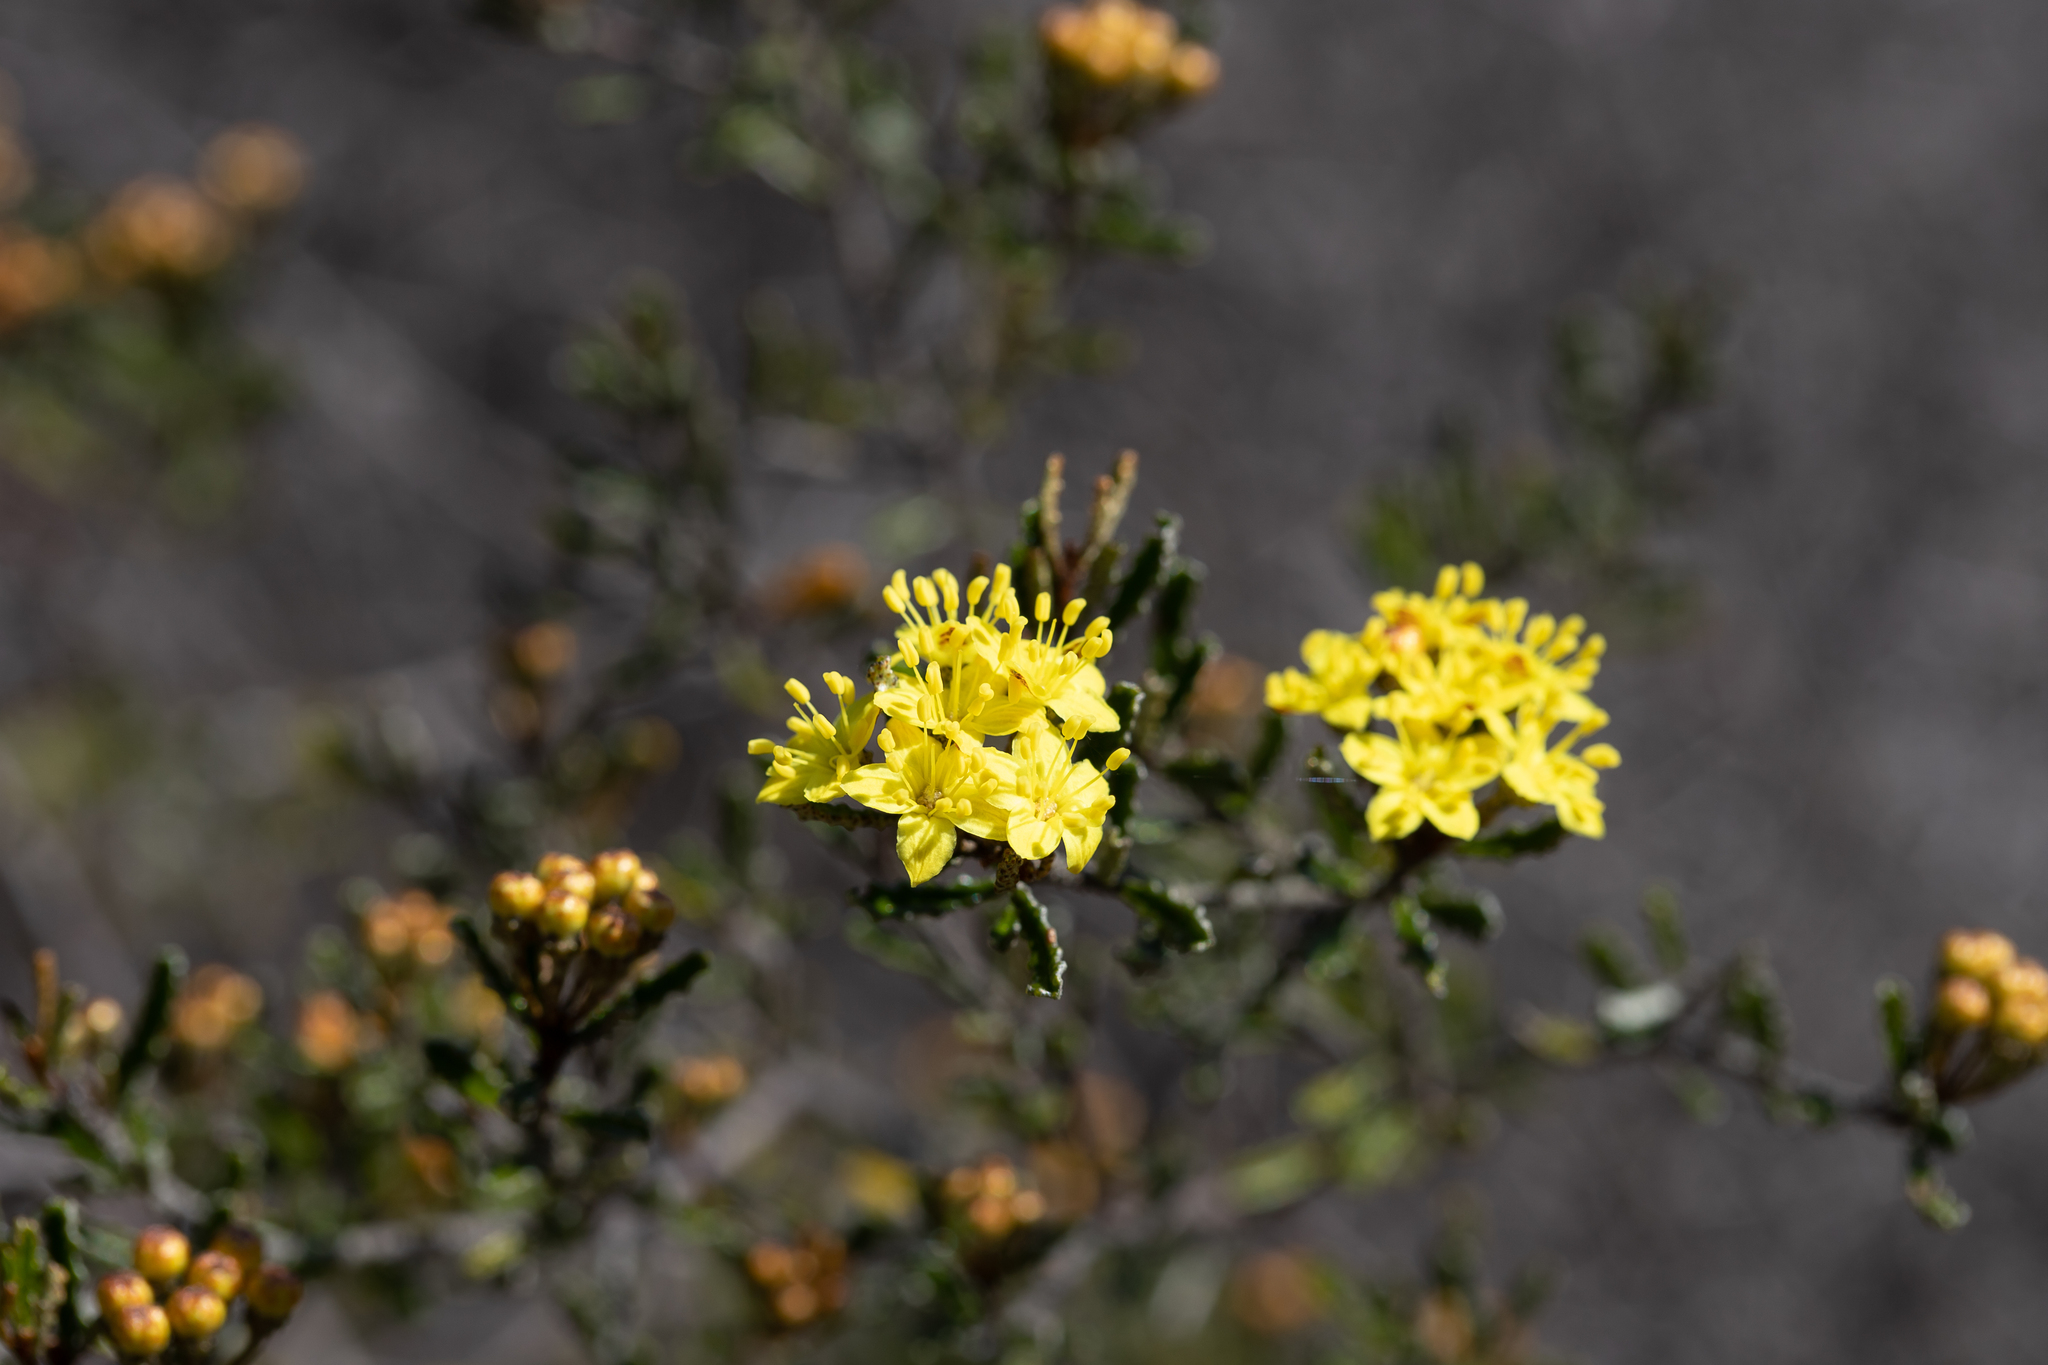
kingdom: Plantae
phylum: Tracheophyta
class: Magnoliopsida
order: Sapindales
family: Rutaceae
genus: Phebalium
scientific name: Phebalium bullatum
